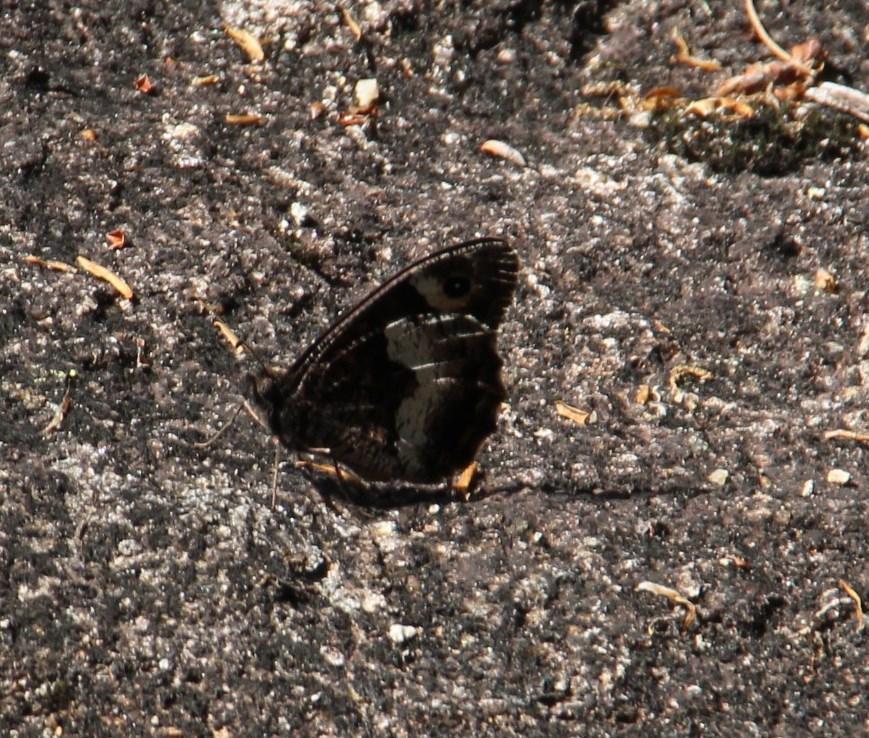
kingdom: Animalia
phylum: Arthropoda
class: Insecta
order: Lepidoptera
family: Nymphalidae
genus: Hipparchia
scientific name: Hipparchia hermione
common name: Rock grayling
